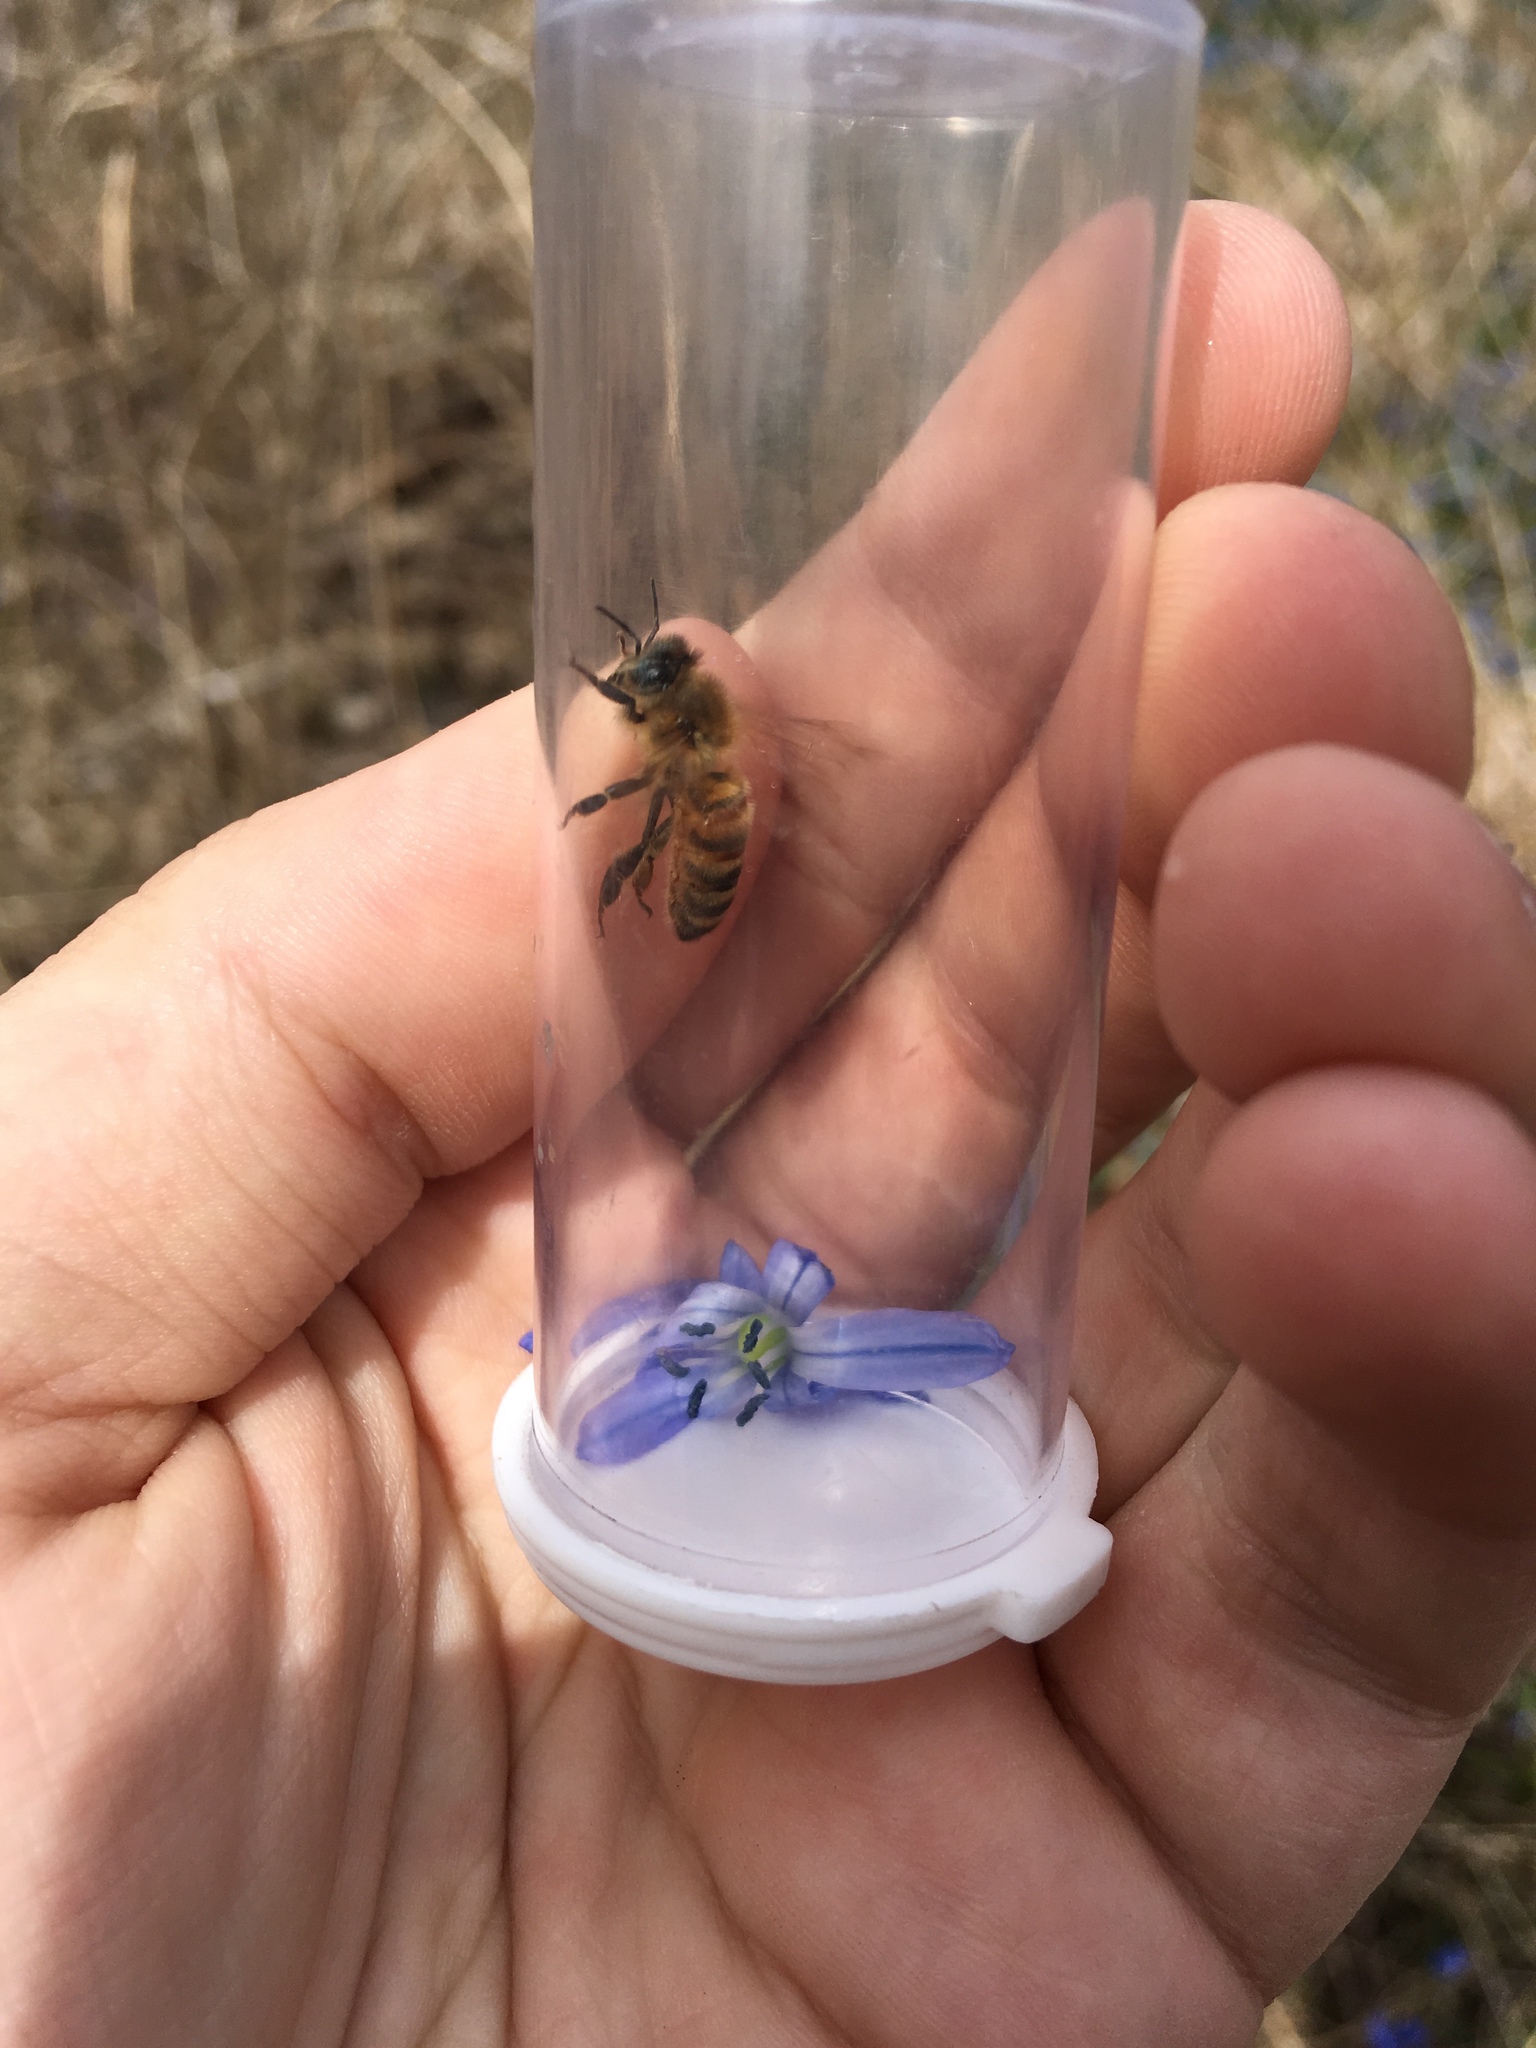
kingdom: Animalia
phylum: Arthropoda
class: Insecta
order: Hymenoptera
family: Apidae
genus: Apis
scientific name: Apis mellifera
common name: Honey bee
